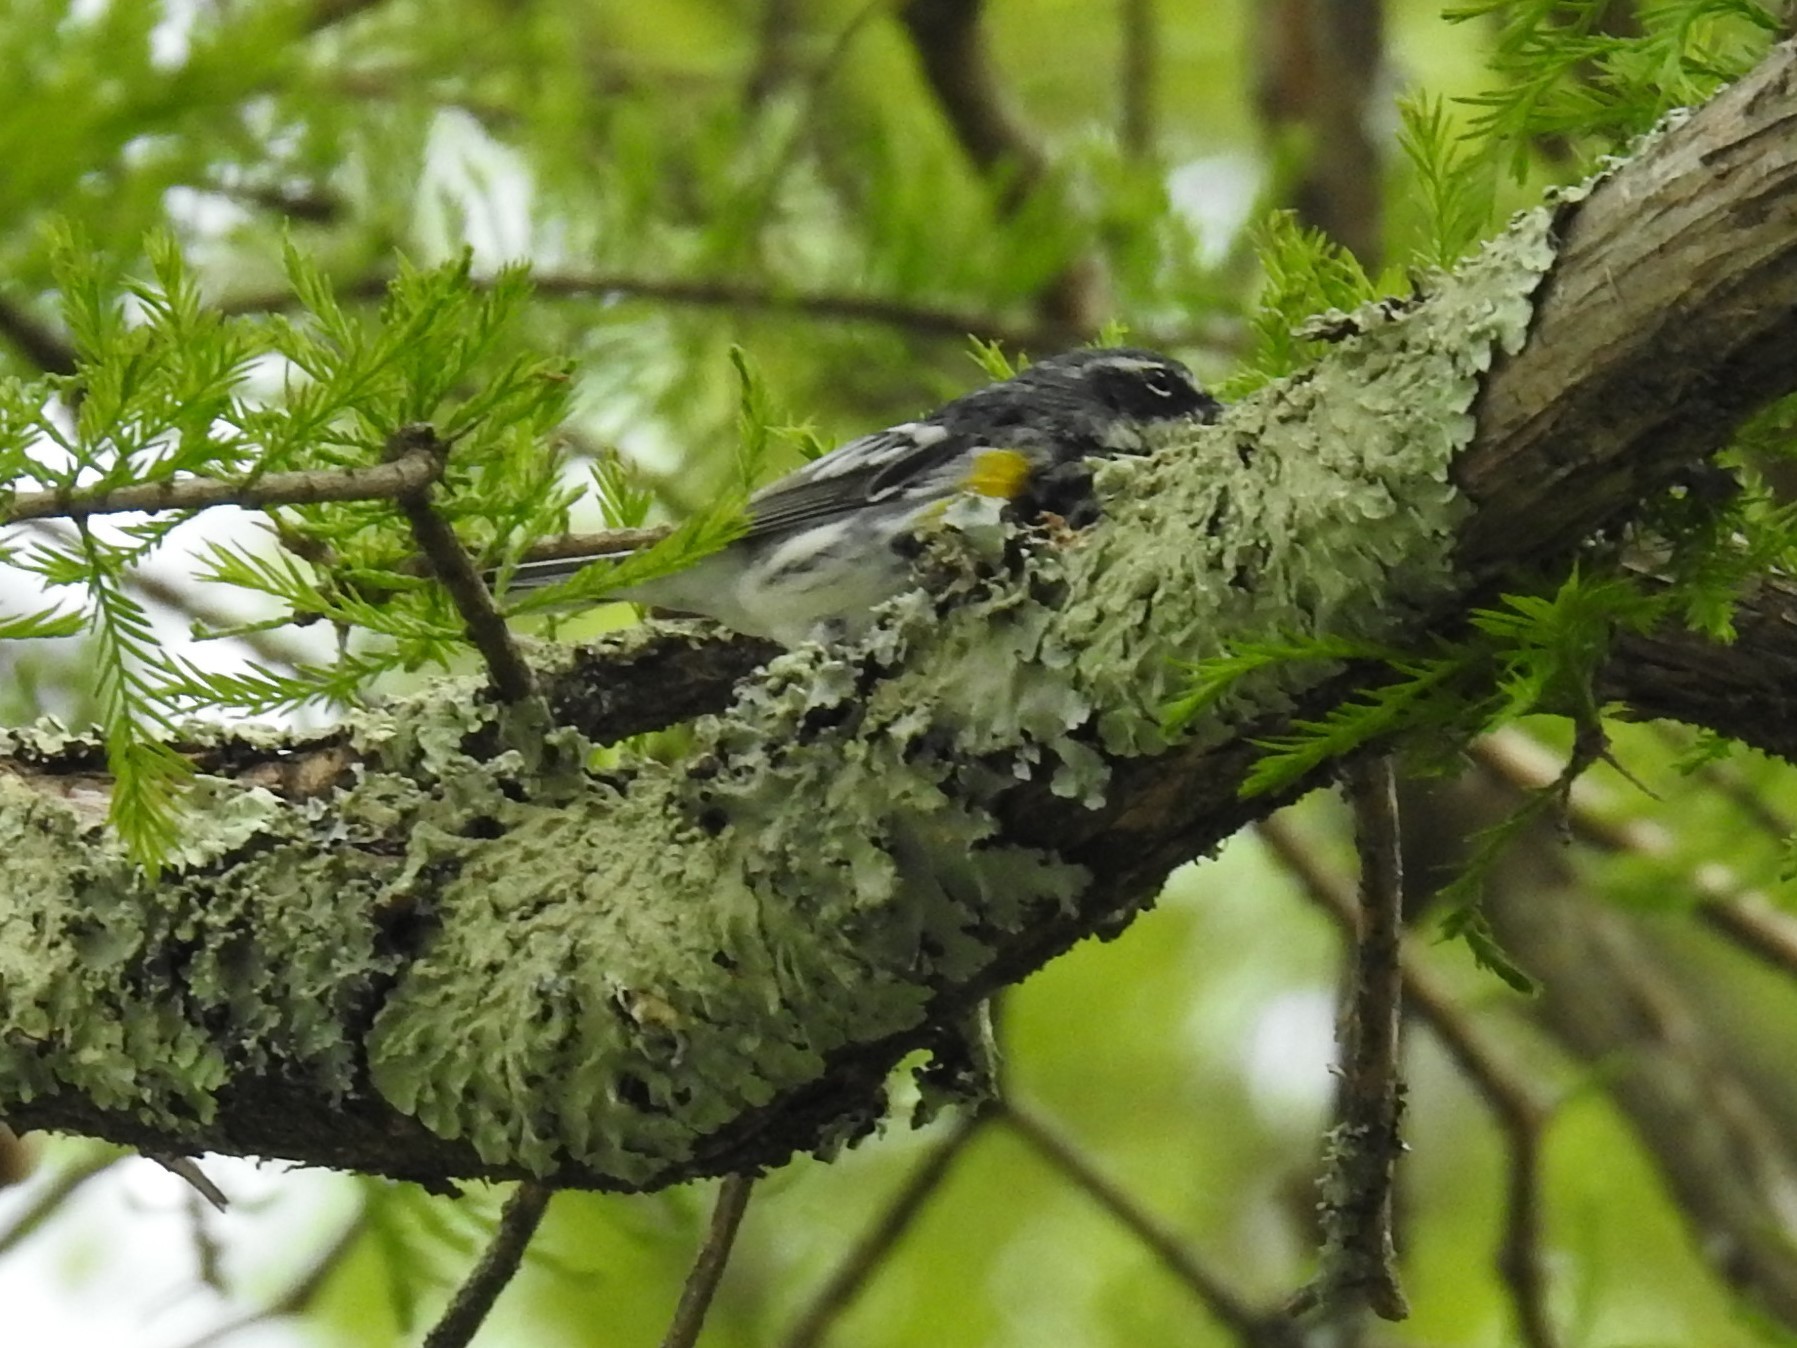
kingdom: Animalia
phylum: Chordata
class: Aves
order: Passeriformes
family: Parulidae
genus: Setophaga
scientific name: Setophaga coronata
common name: Myrtle warbler
